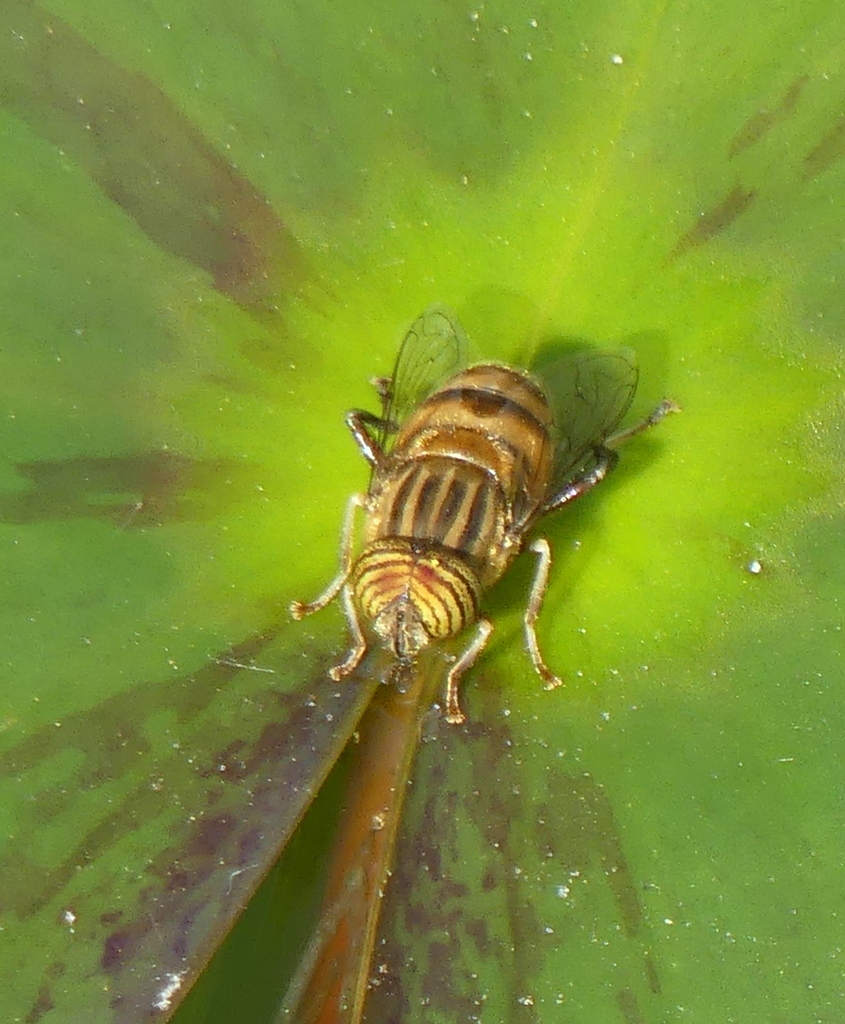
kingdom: Animalia
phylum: Arthropoda
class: Insecta
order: Diptera
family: Syrphidae
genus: Eristalinus
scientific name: Eristalinus quinquelineatus
